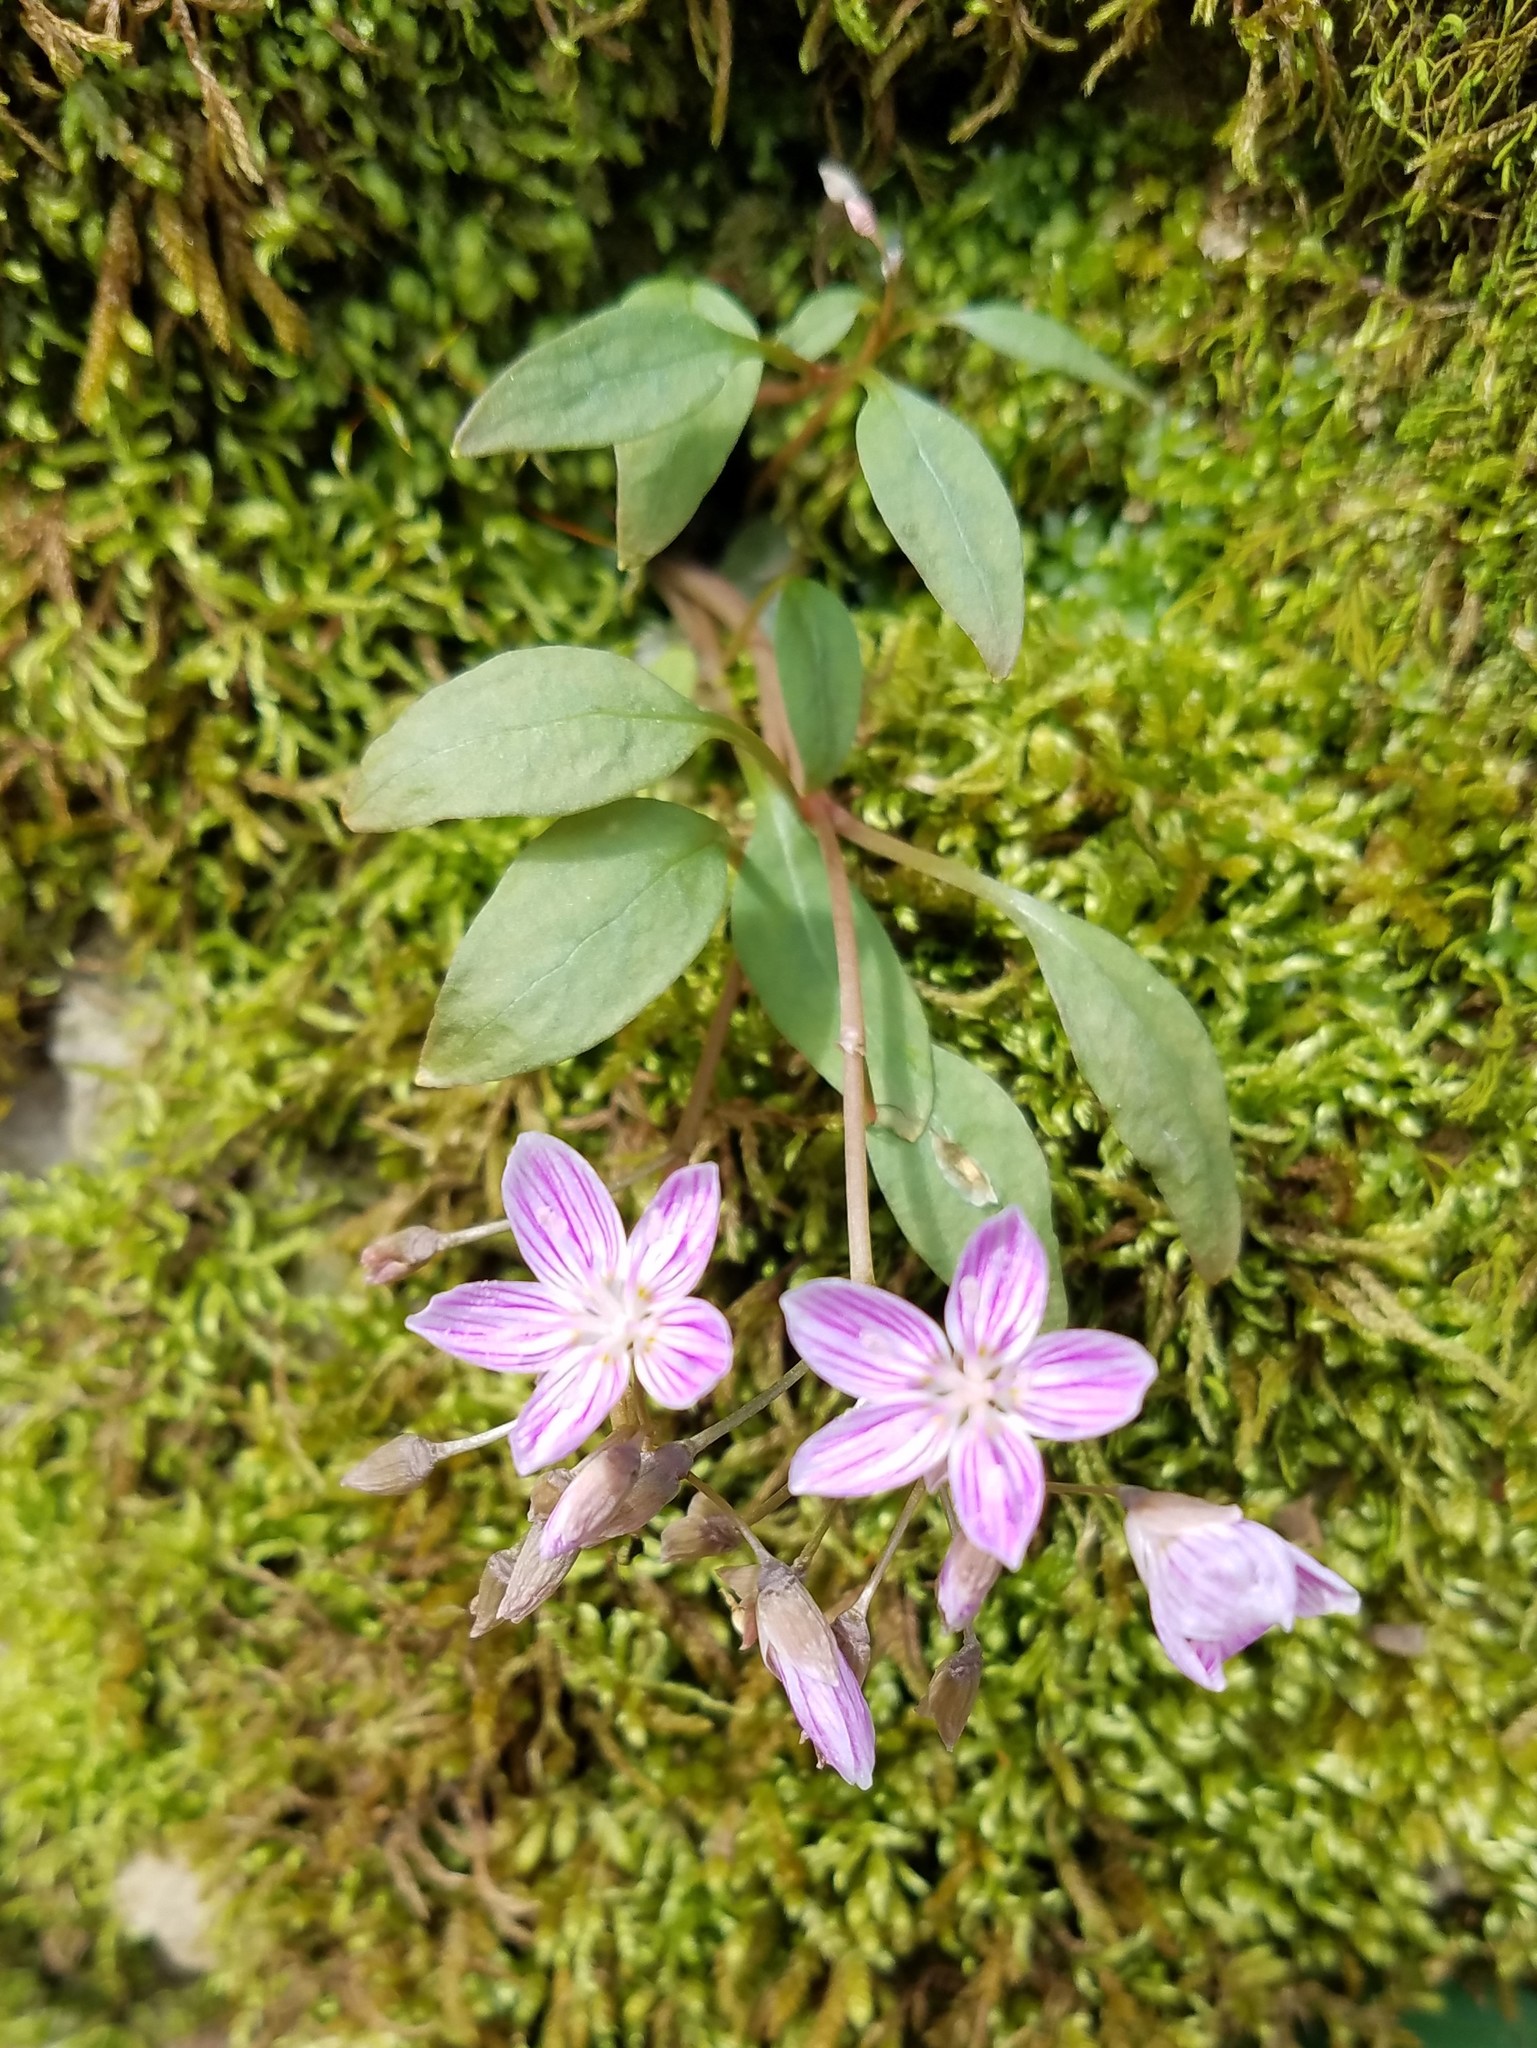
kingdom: Plantae
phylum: Tracheophyta
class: Magnoliopsida
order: Caryophyllales
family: Montiaceae
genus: Claytonia
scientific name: Claytonia caroliniana
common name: Carolina spring beauty
